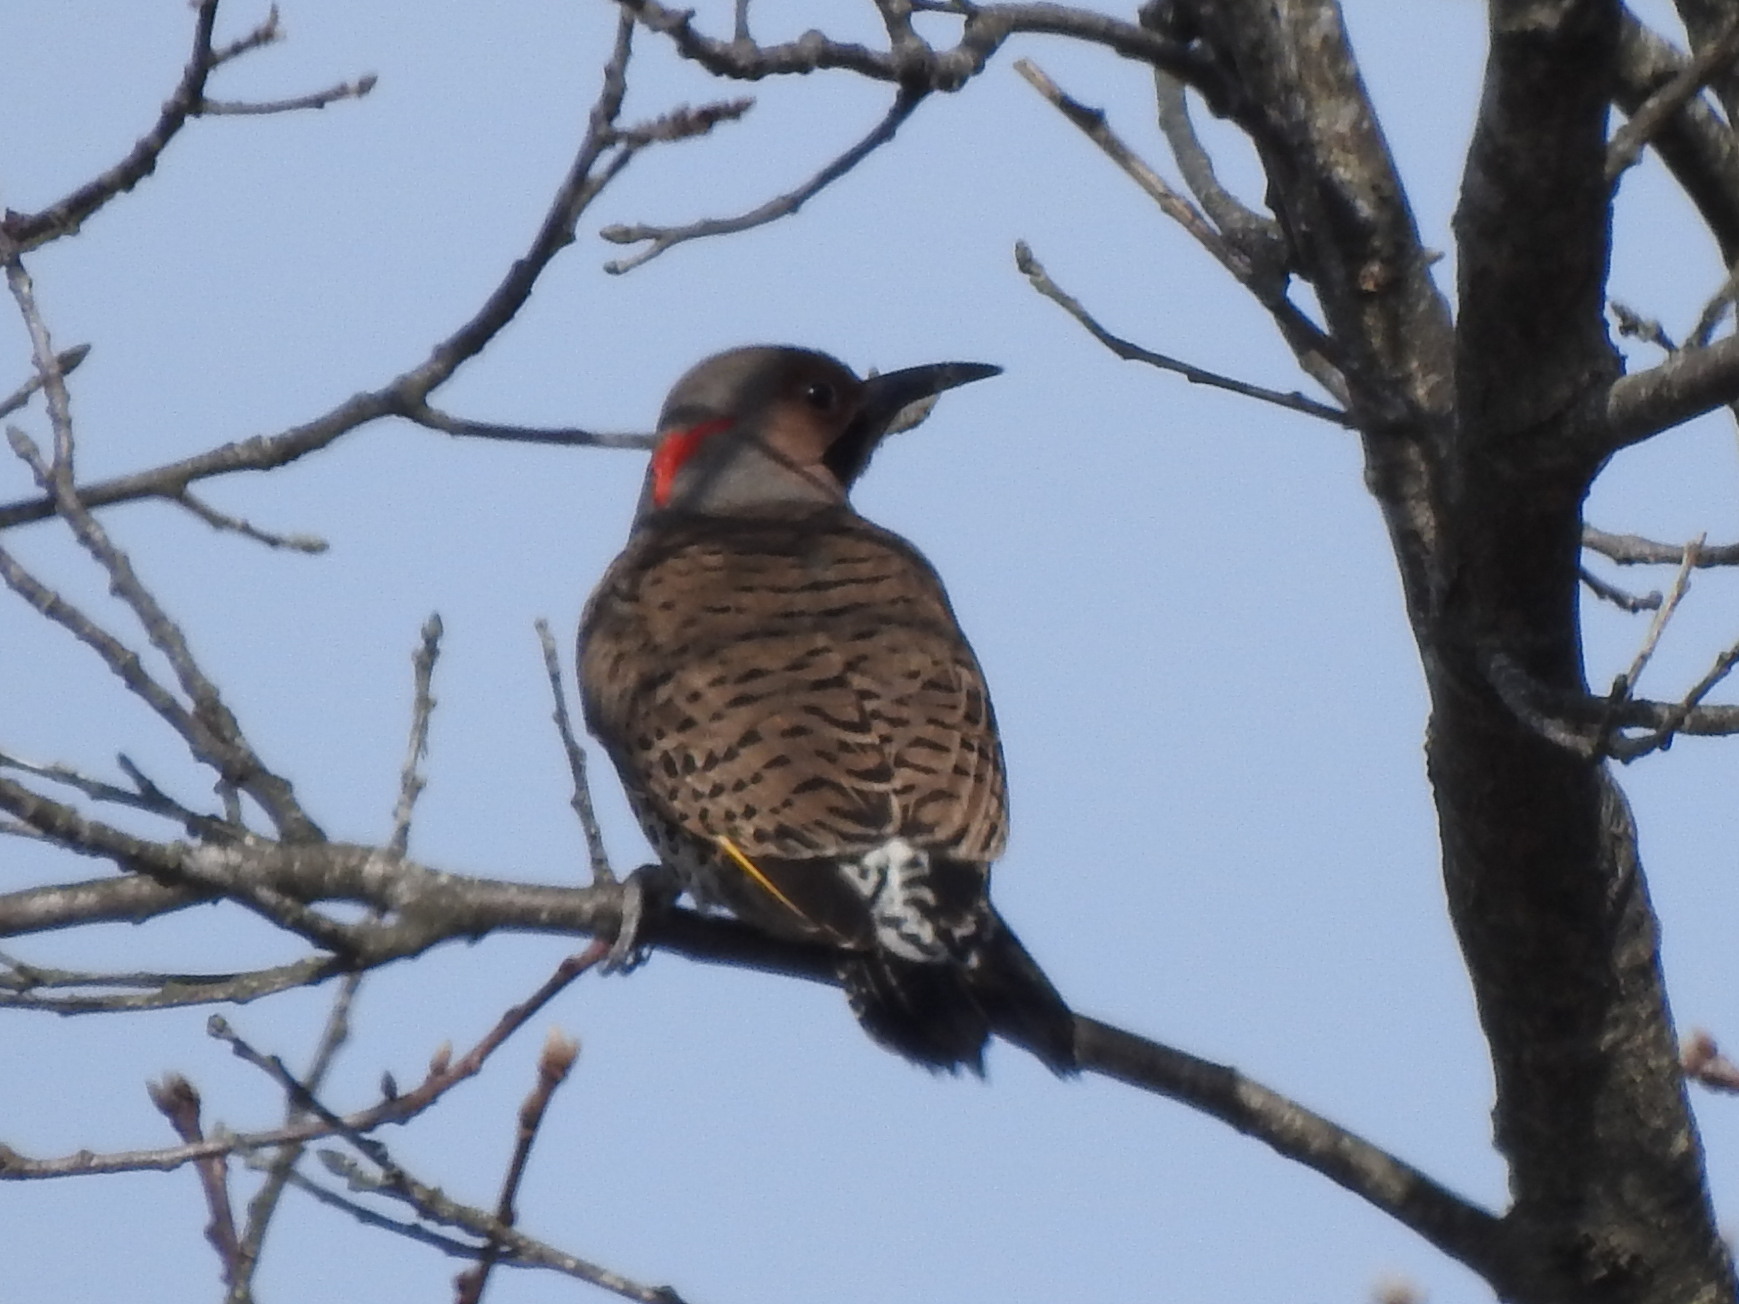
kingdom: Animalia
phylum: Chordata
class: Aves
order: Piciformes
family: Picidae
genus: Colaptes
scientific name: Colaptes auratus
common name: Northern flicker
